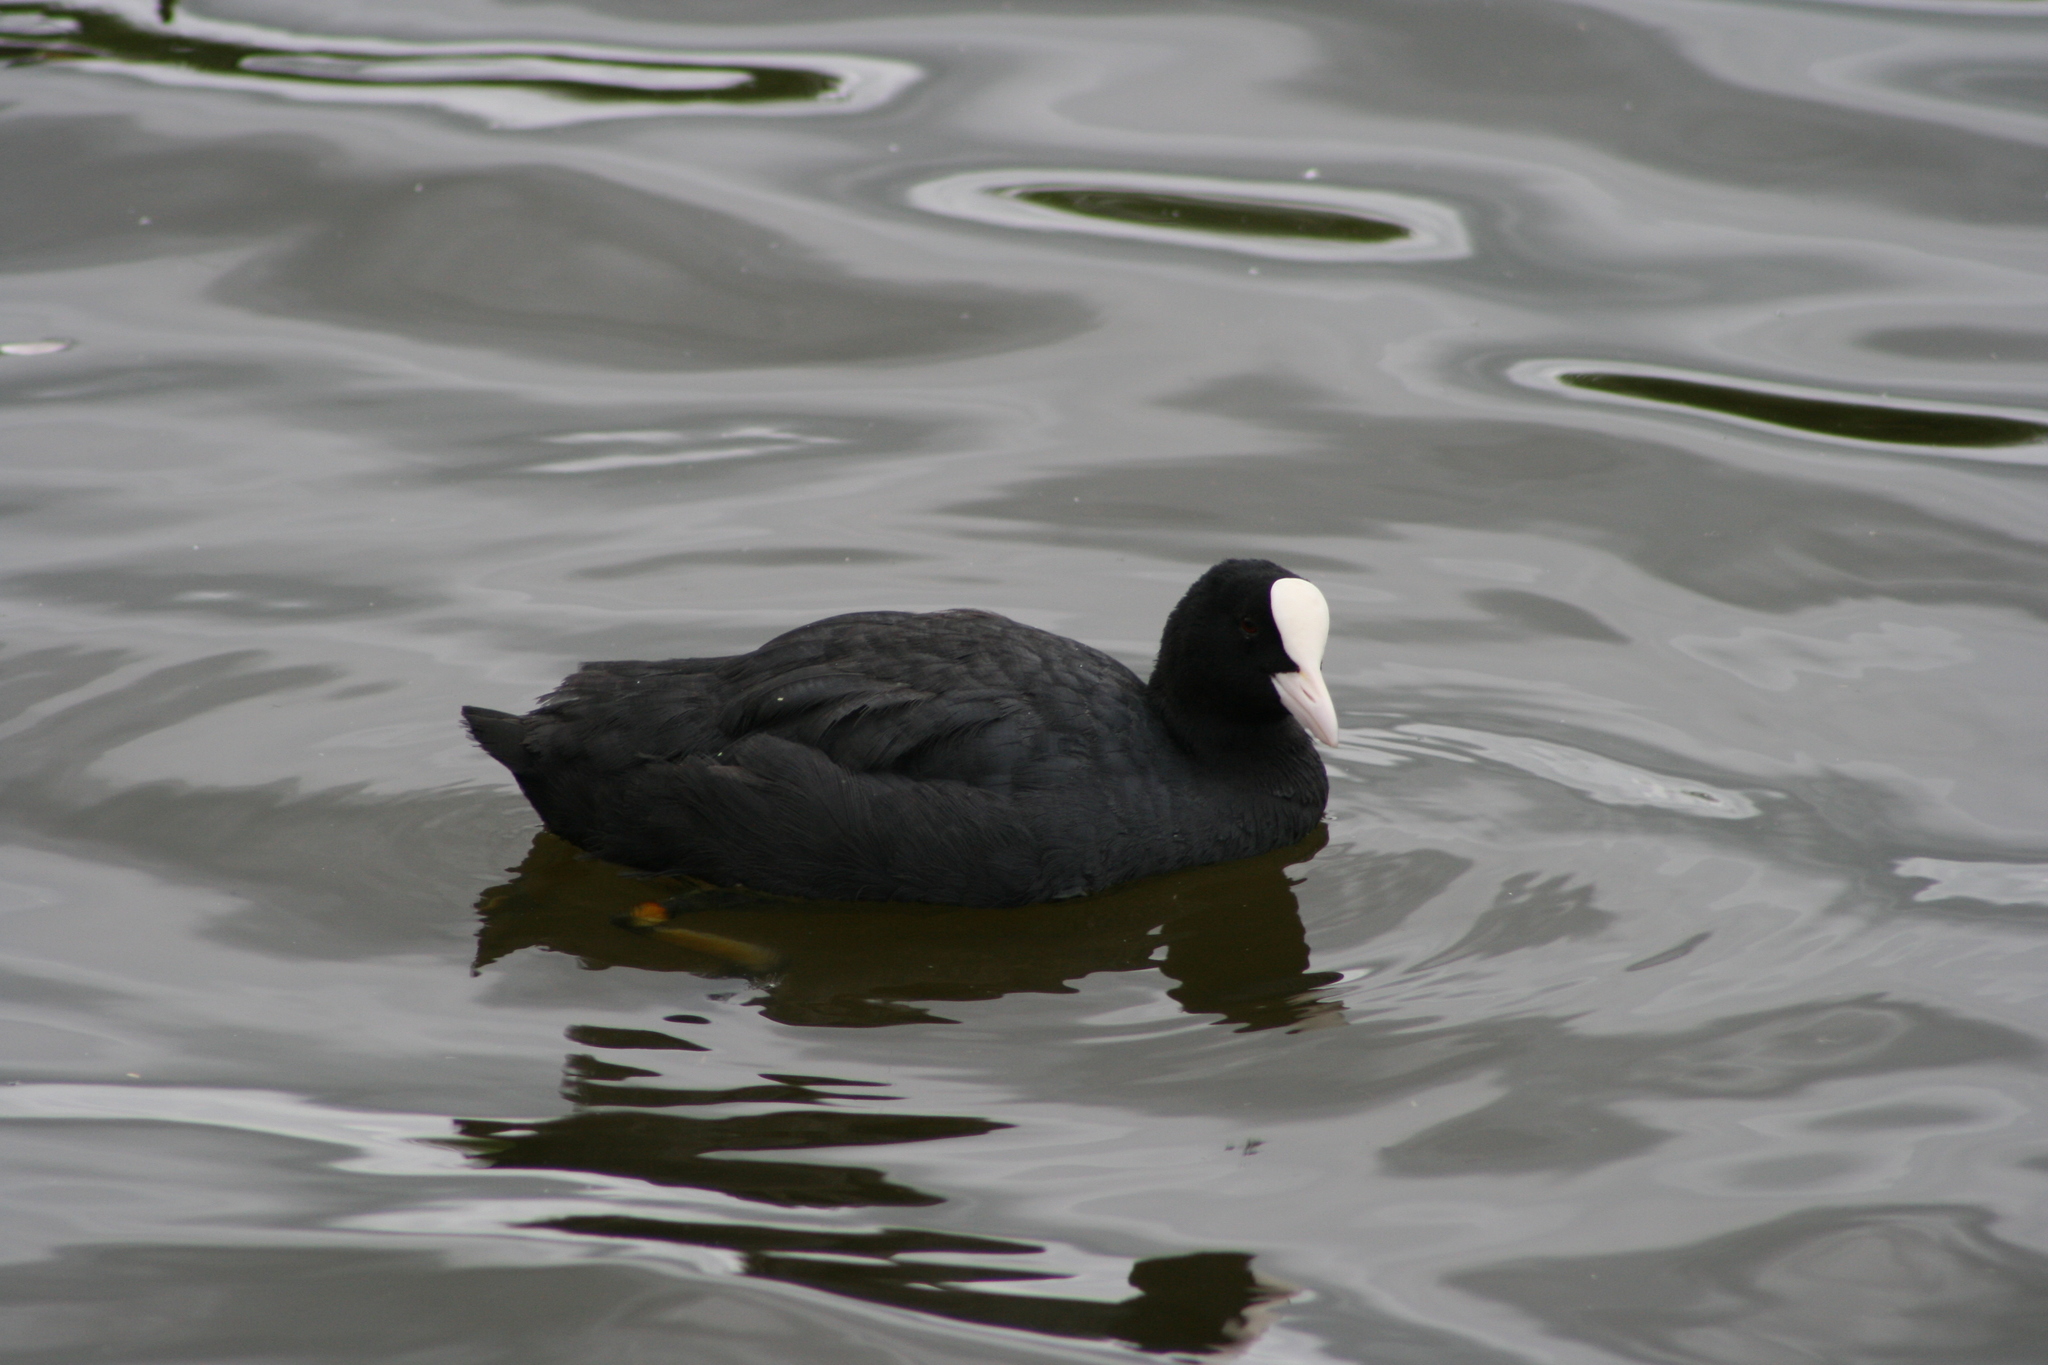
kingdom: Animalia
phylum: Chordata
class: Aves
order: Gruiformes
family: Rallidae
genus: Fulica
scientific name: Fulica atra
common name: Eurasian coot
